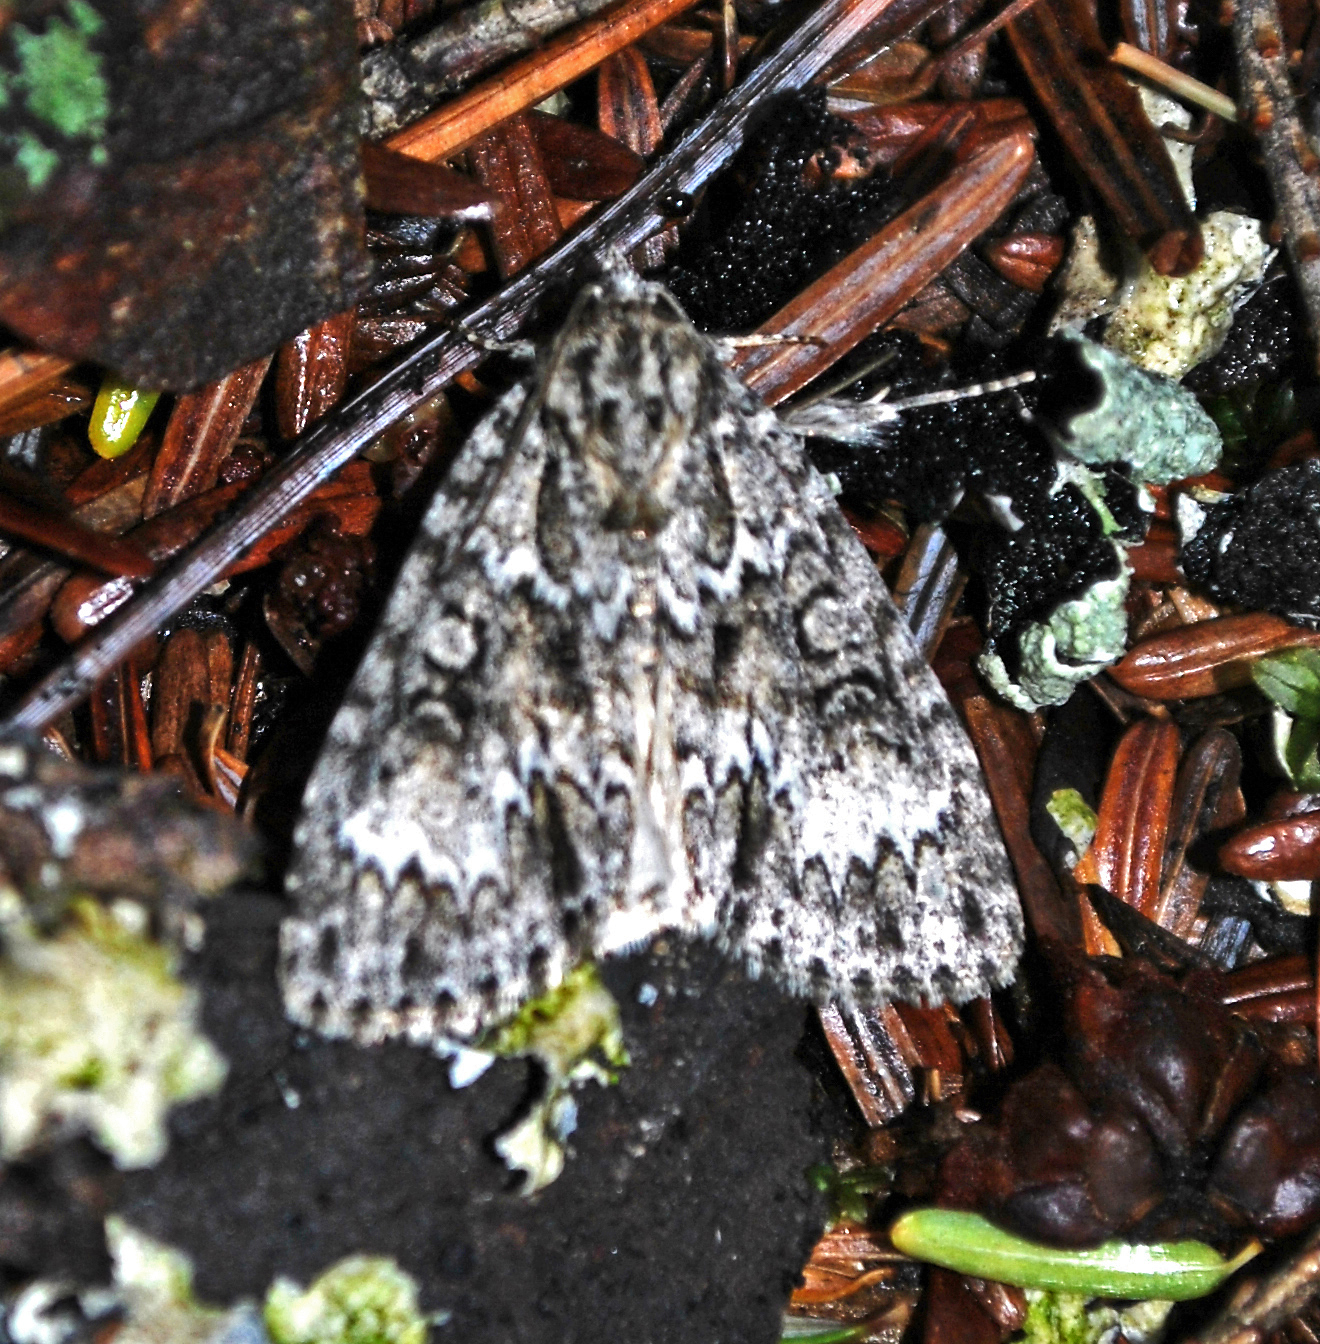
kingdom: Animalia
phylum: Arthropoda
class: Insecta
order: Lepidoptera
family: Noctuidae
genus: Acronicta
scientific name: Acronicta fragilis
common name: Fragile dagger
